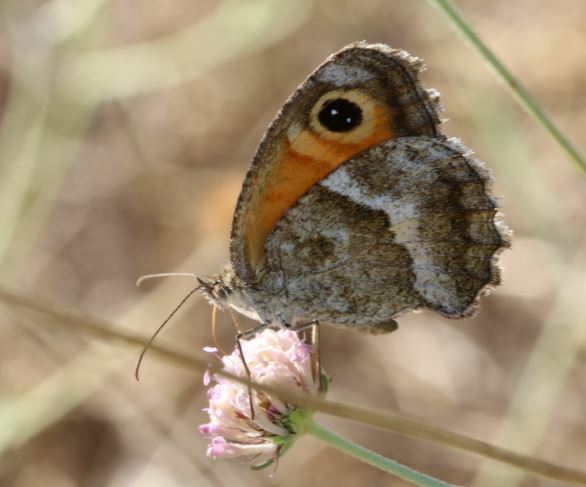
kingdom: Animalia
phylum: Arthropoda
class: Insecta
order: Lepidoptera
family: Nymphalidae
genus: Pyronia
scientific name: Pyronia cecilia
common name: Southern gatekeeper
